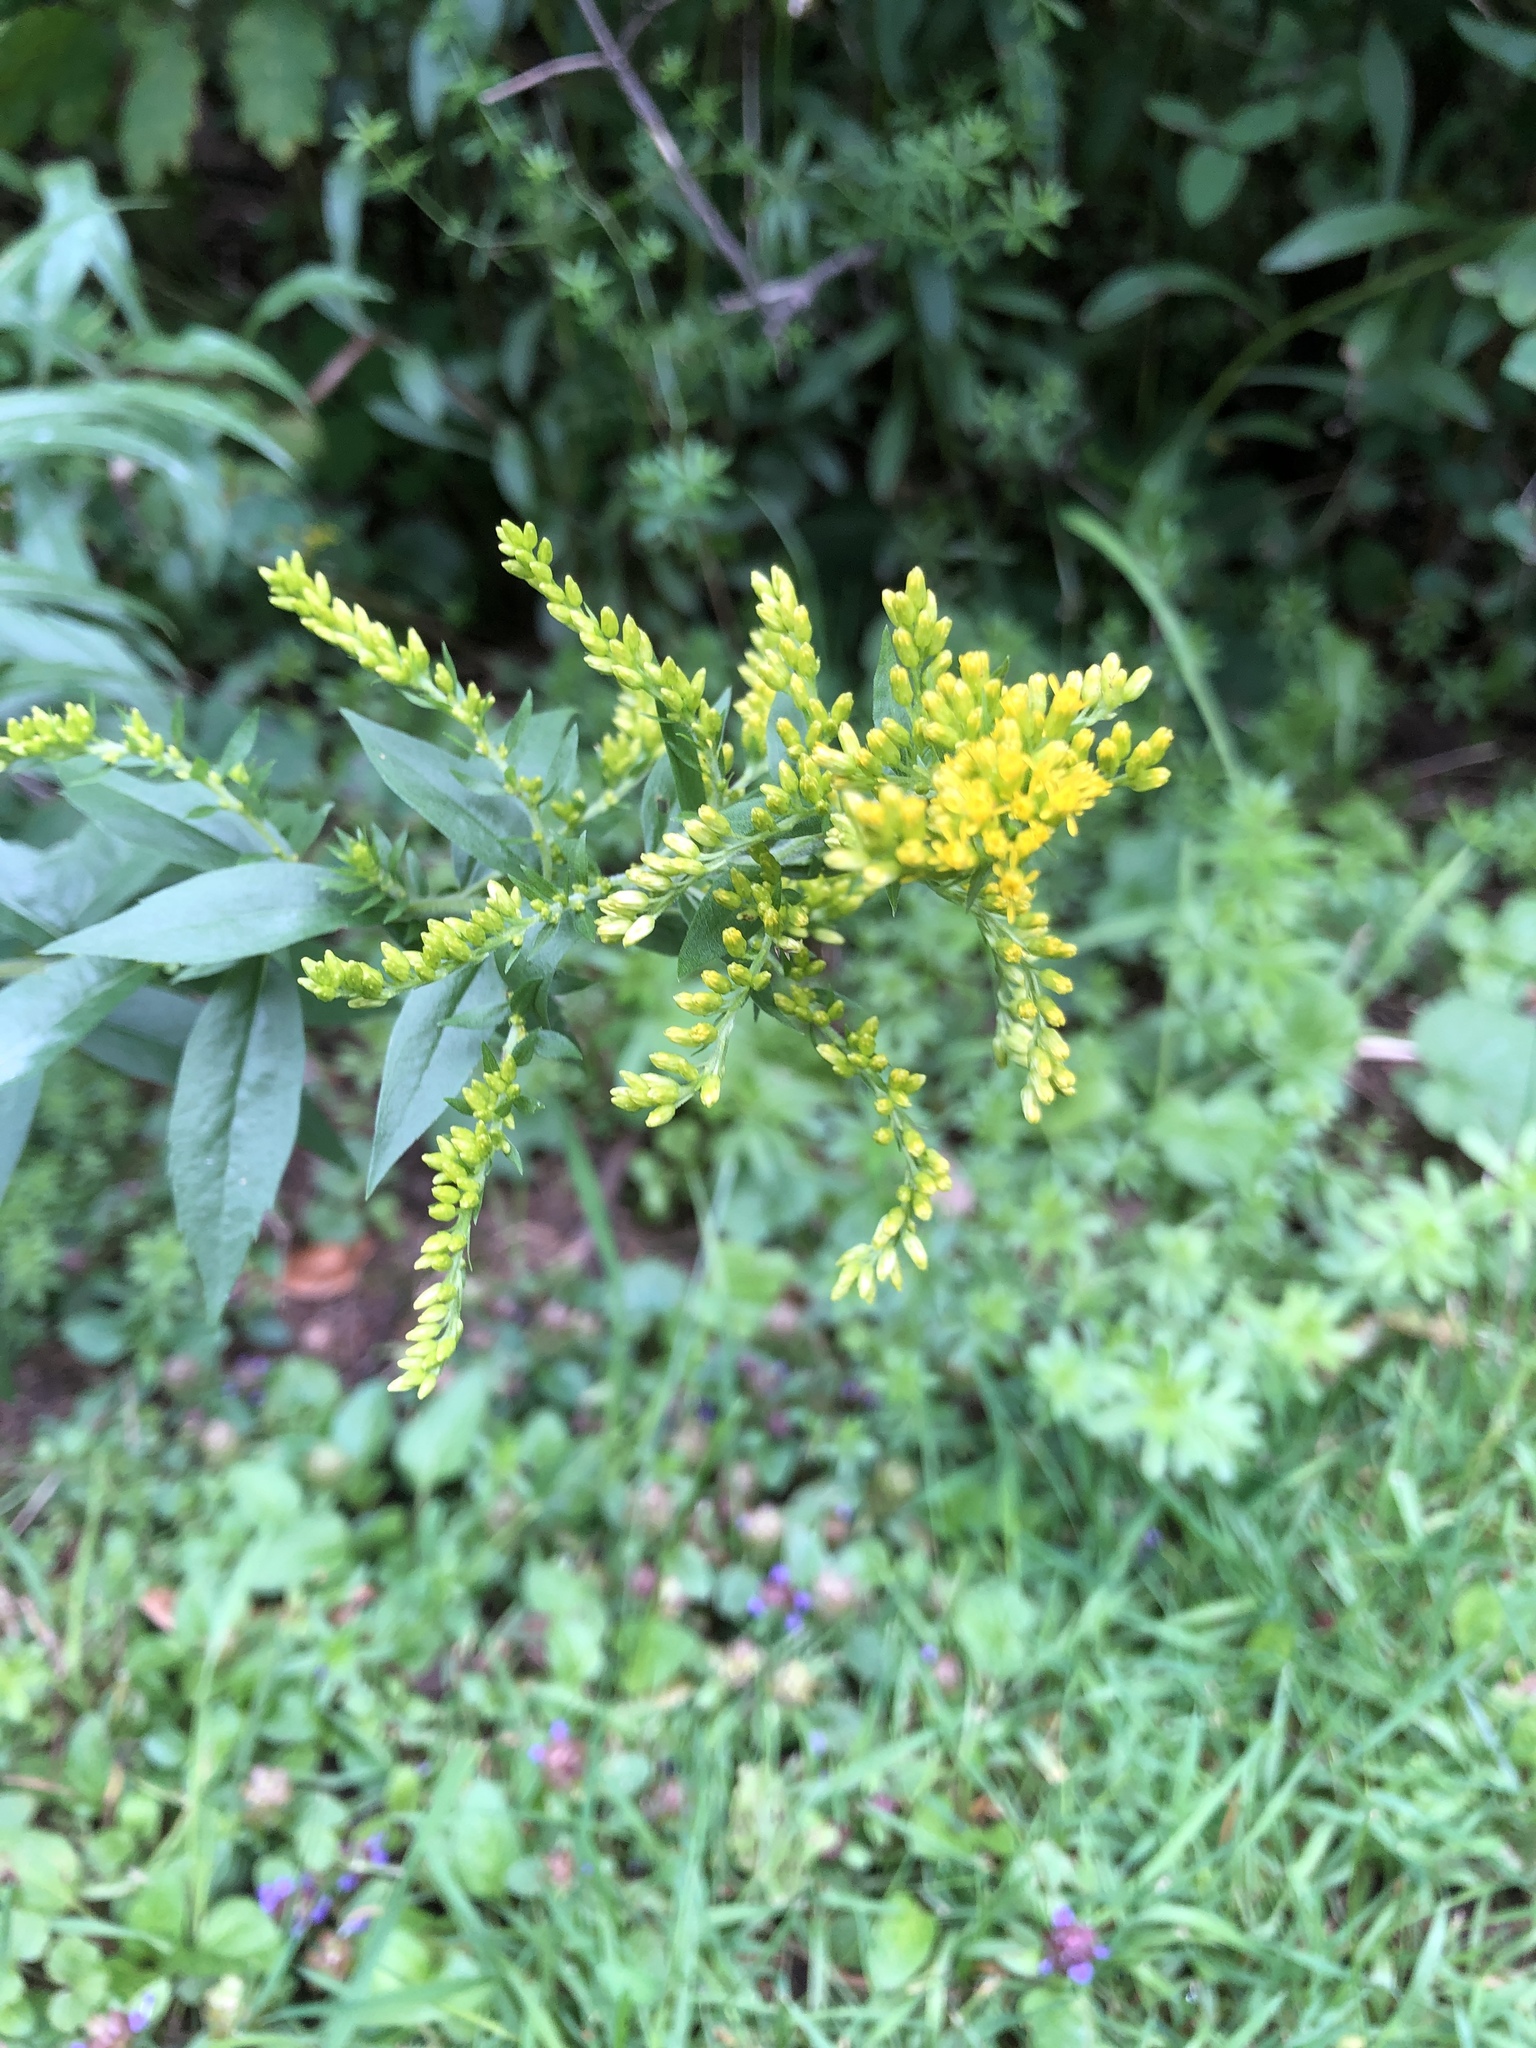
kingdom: Plantae
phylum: Tracheophyta
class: Magnoliopsida
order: Asterales
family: Asteraceae
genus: Solidago
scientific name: Solidago canadensis
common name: Canada goldenrod
